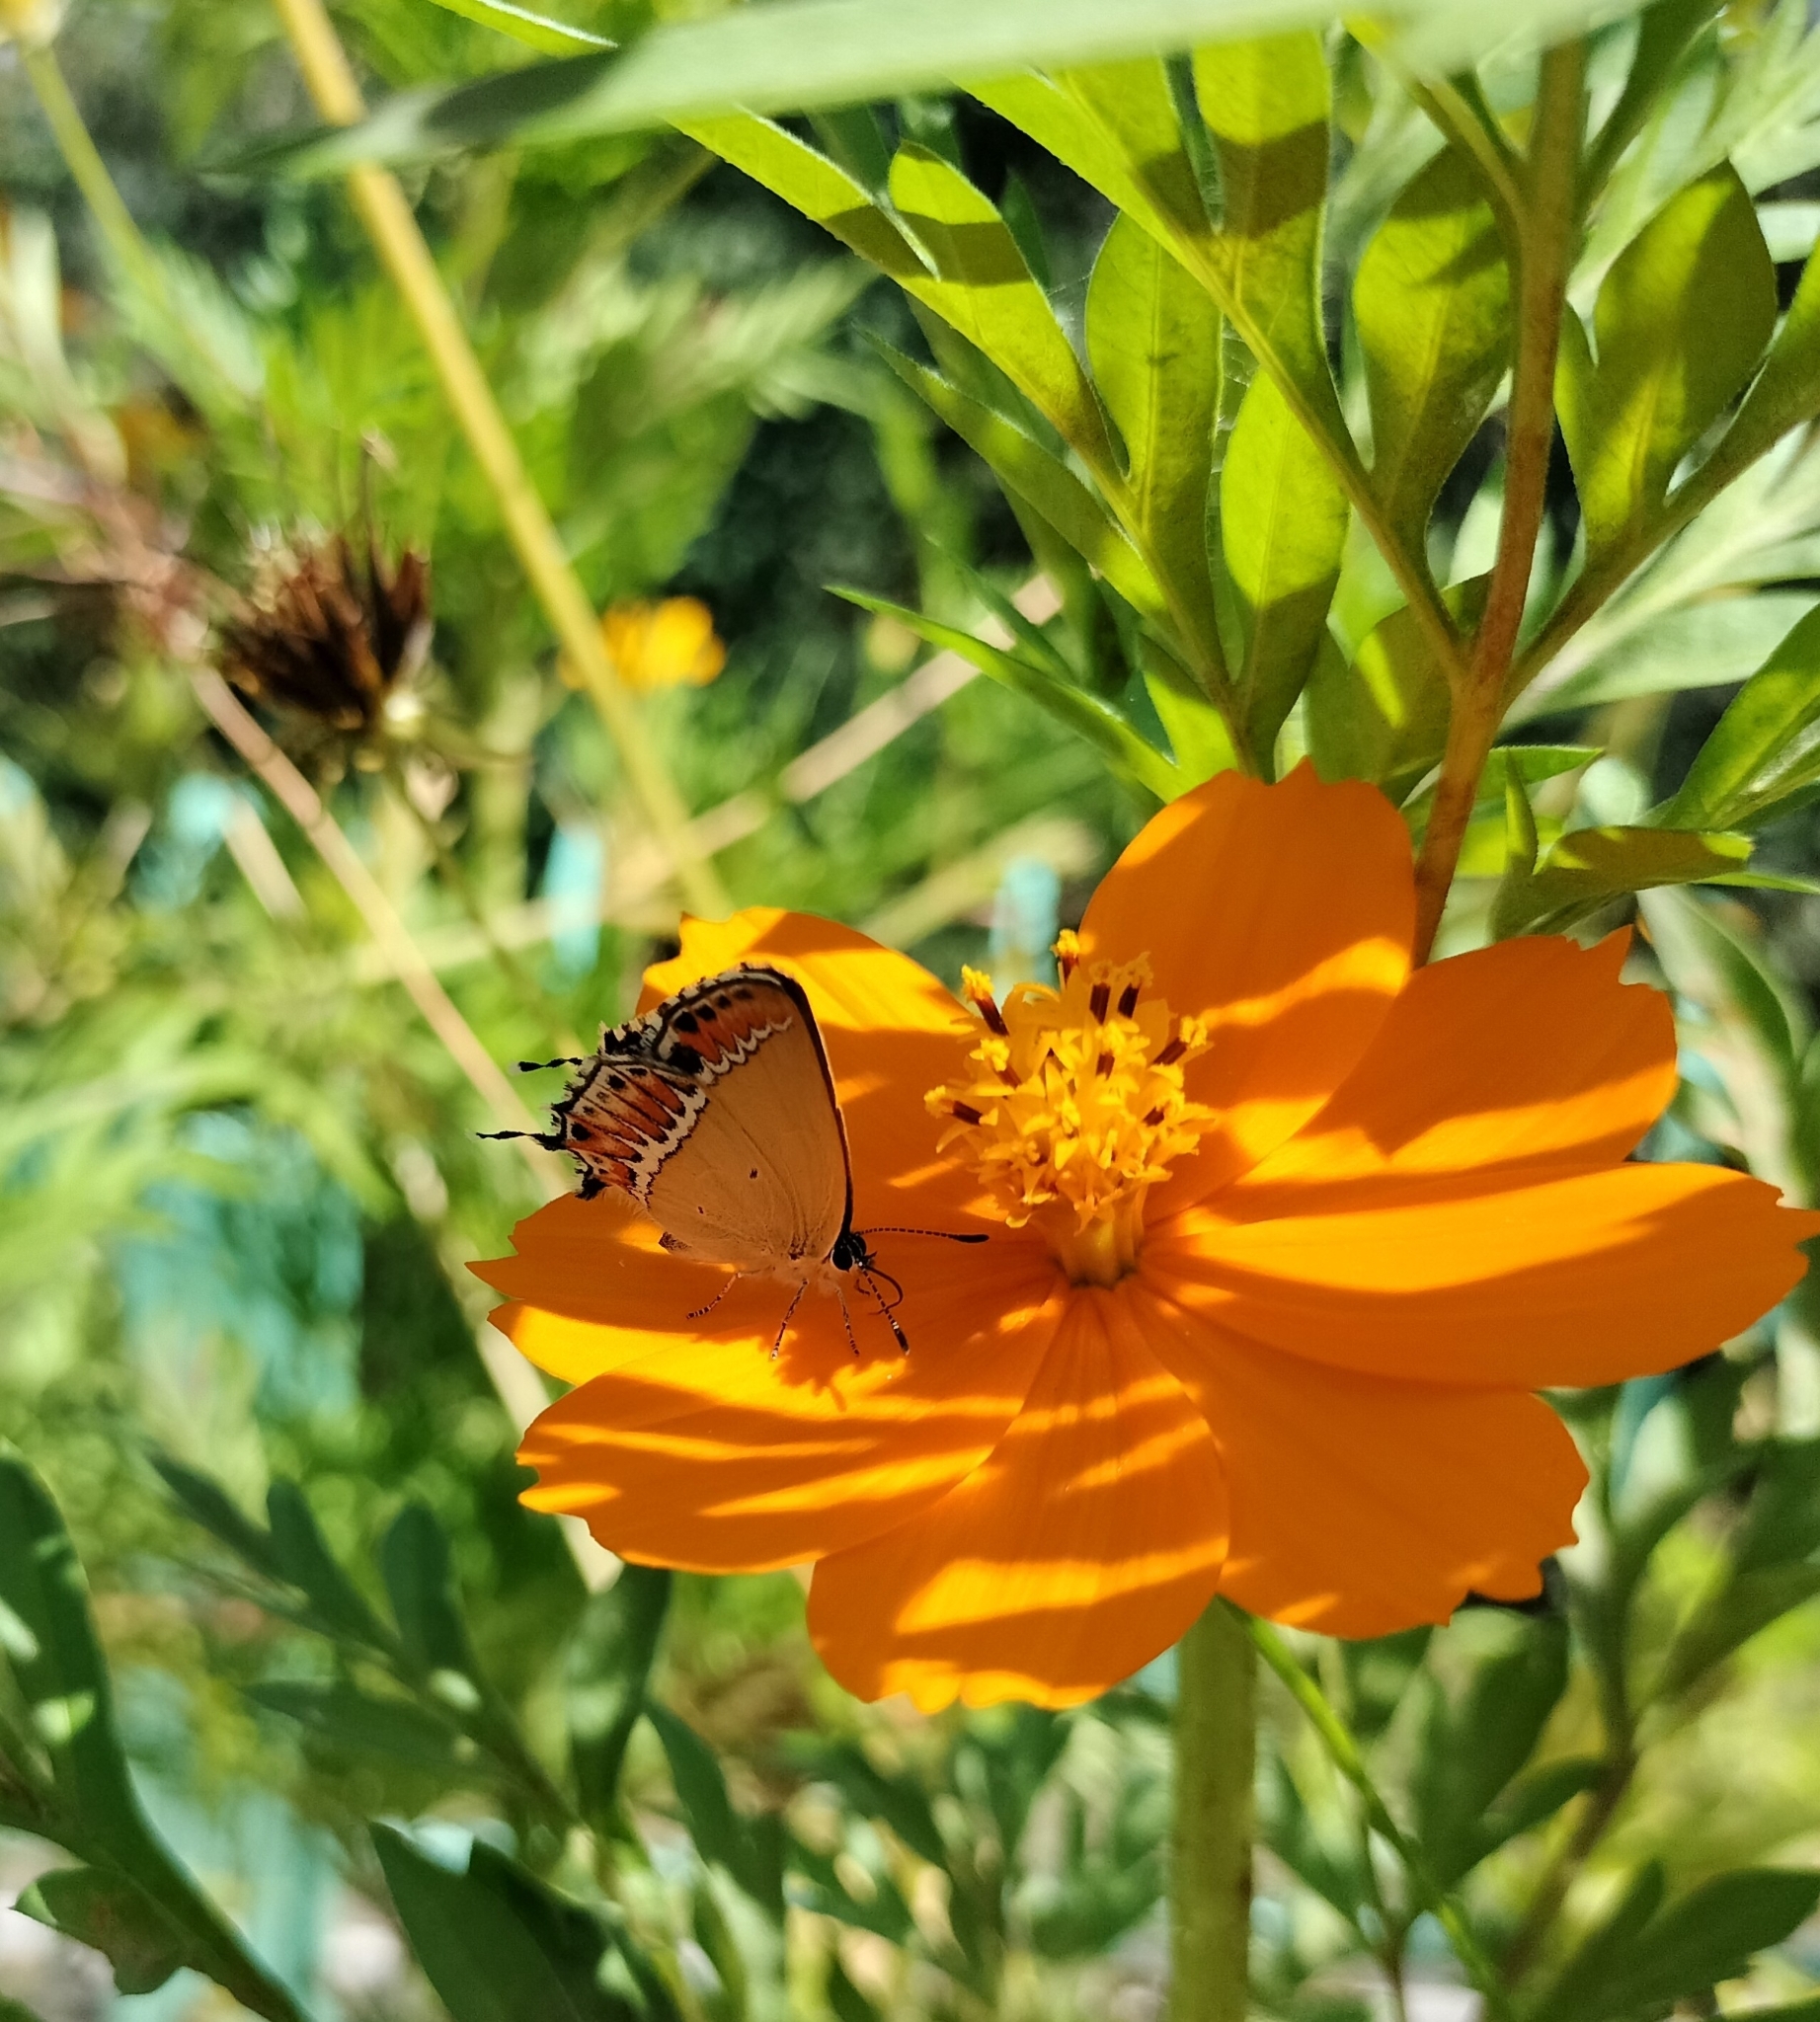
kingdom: Animalia
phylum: Arthropoda
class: Insecta
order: Lepidoptera
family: Lycaenidae
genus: Heliophorus
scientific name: Heliophorus sena
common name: Sorrel sapphire
